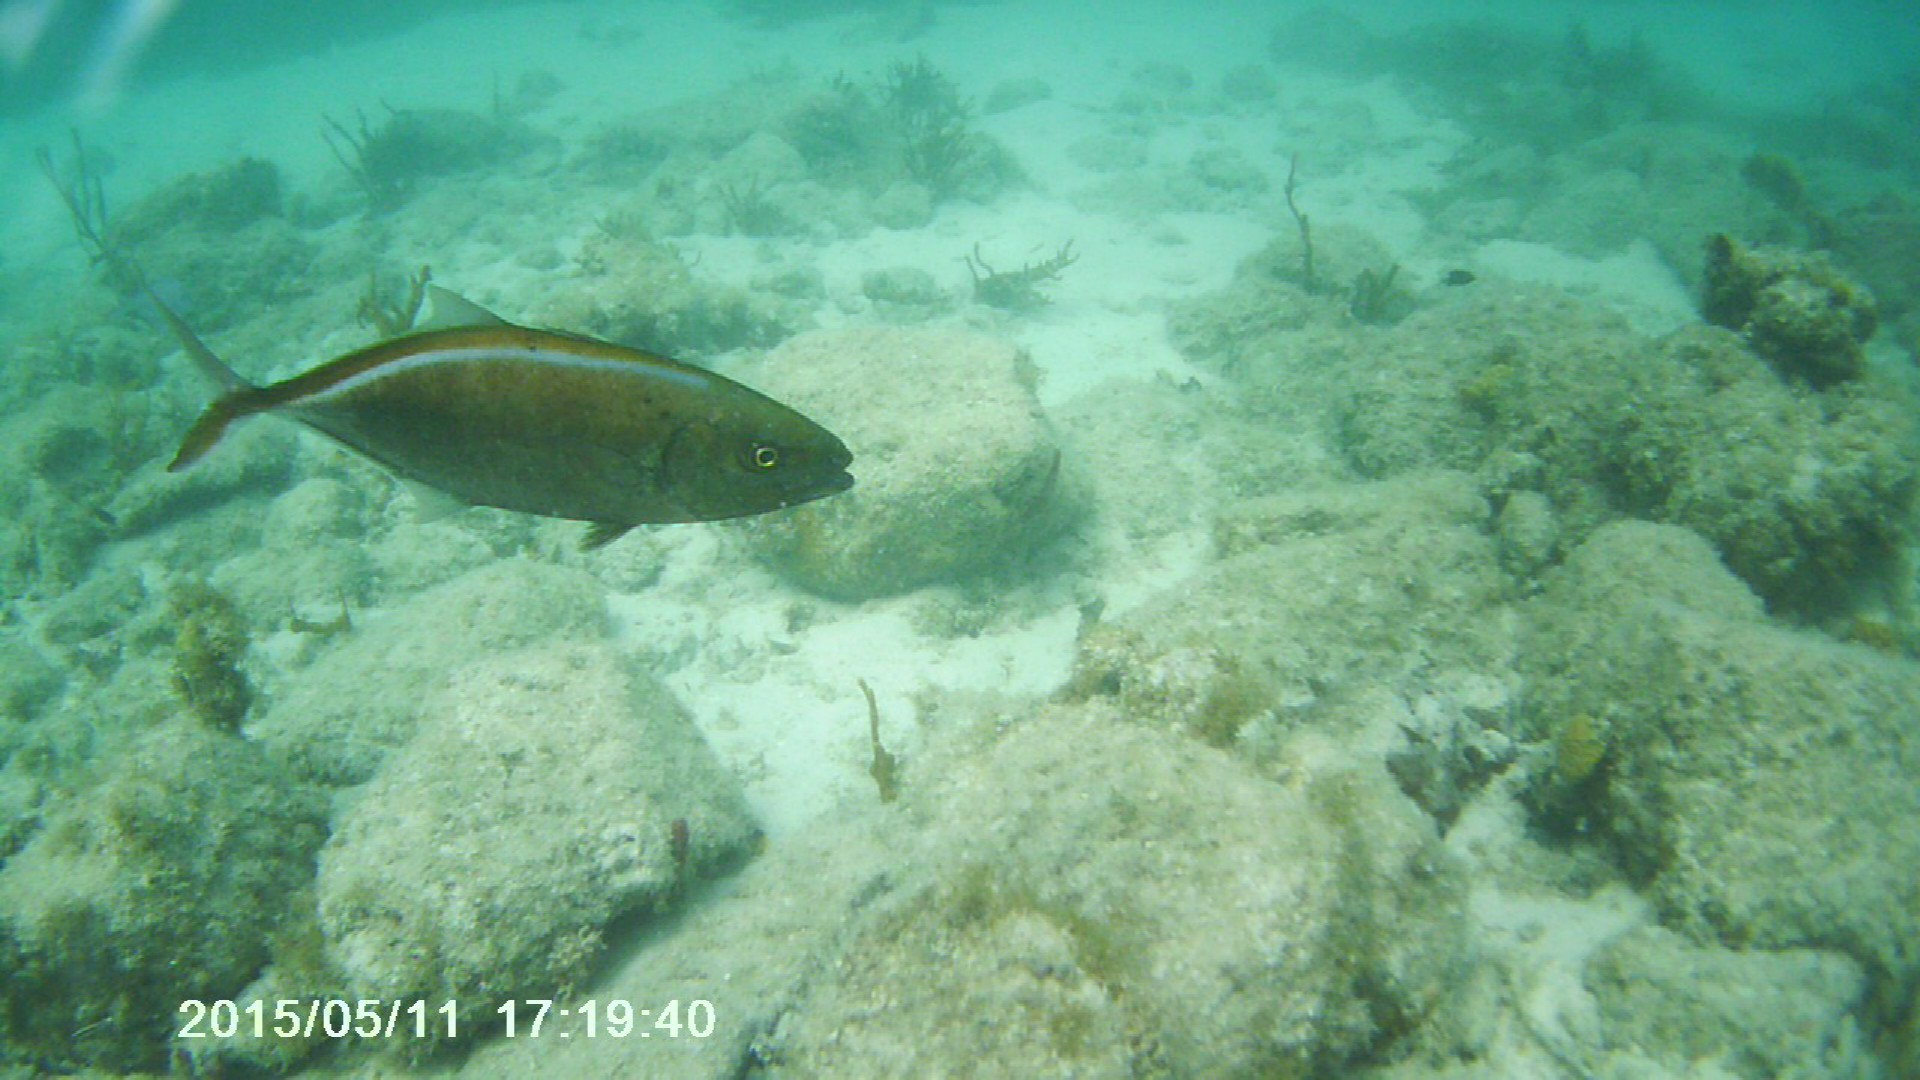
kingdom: Animalia
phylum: Chordata
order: Perciformes
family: Carangidae
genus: Caranx
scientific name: Caranx ruber
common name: Bar jack
